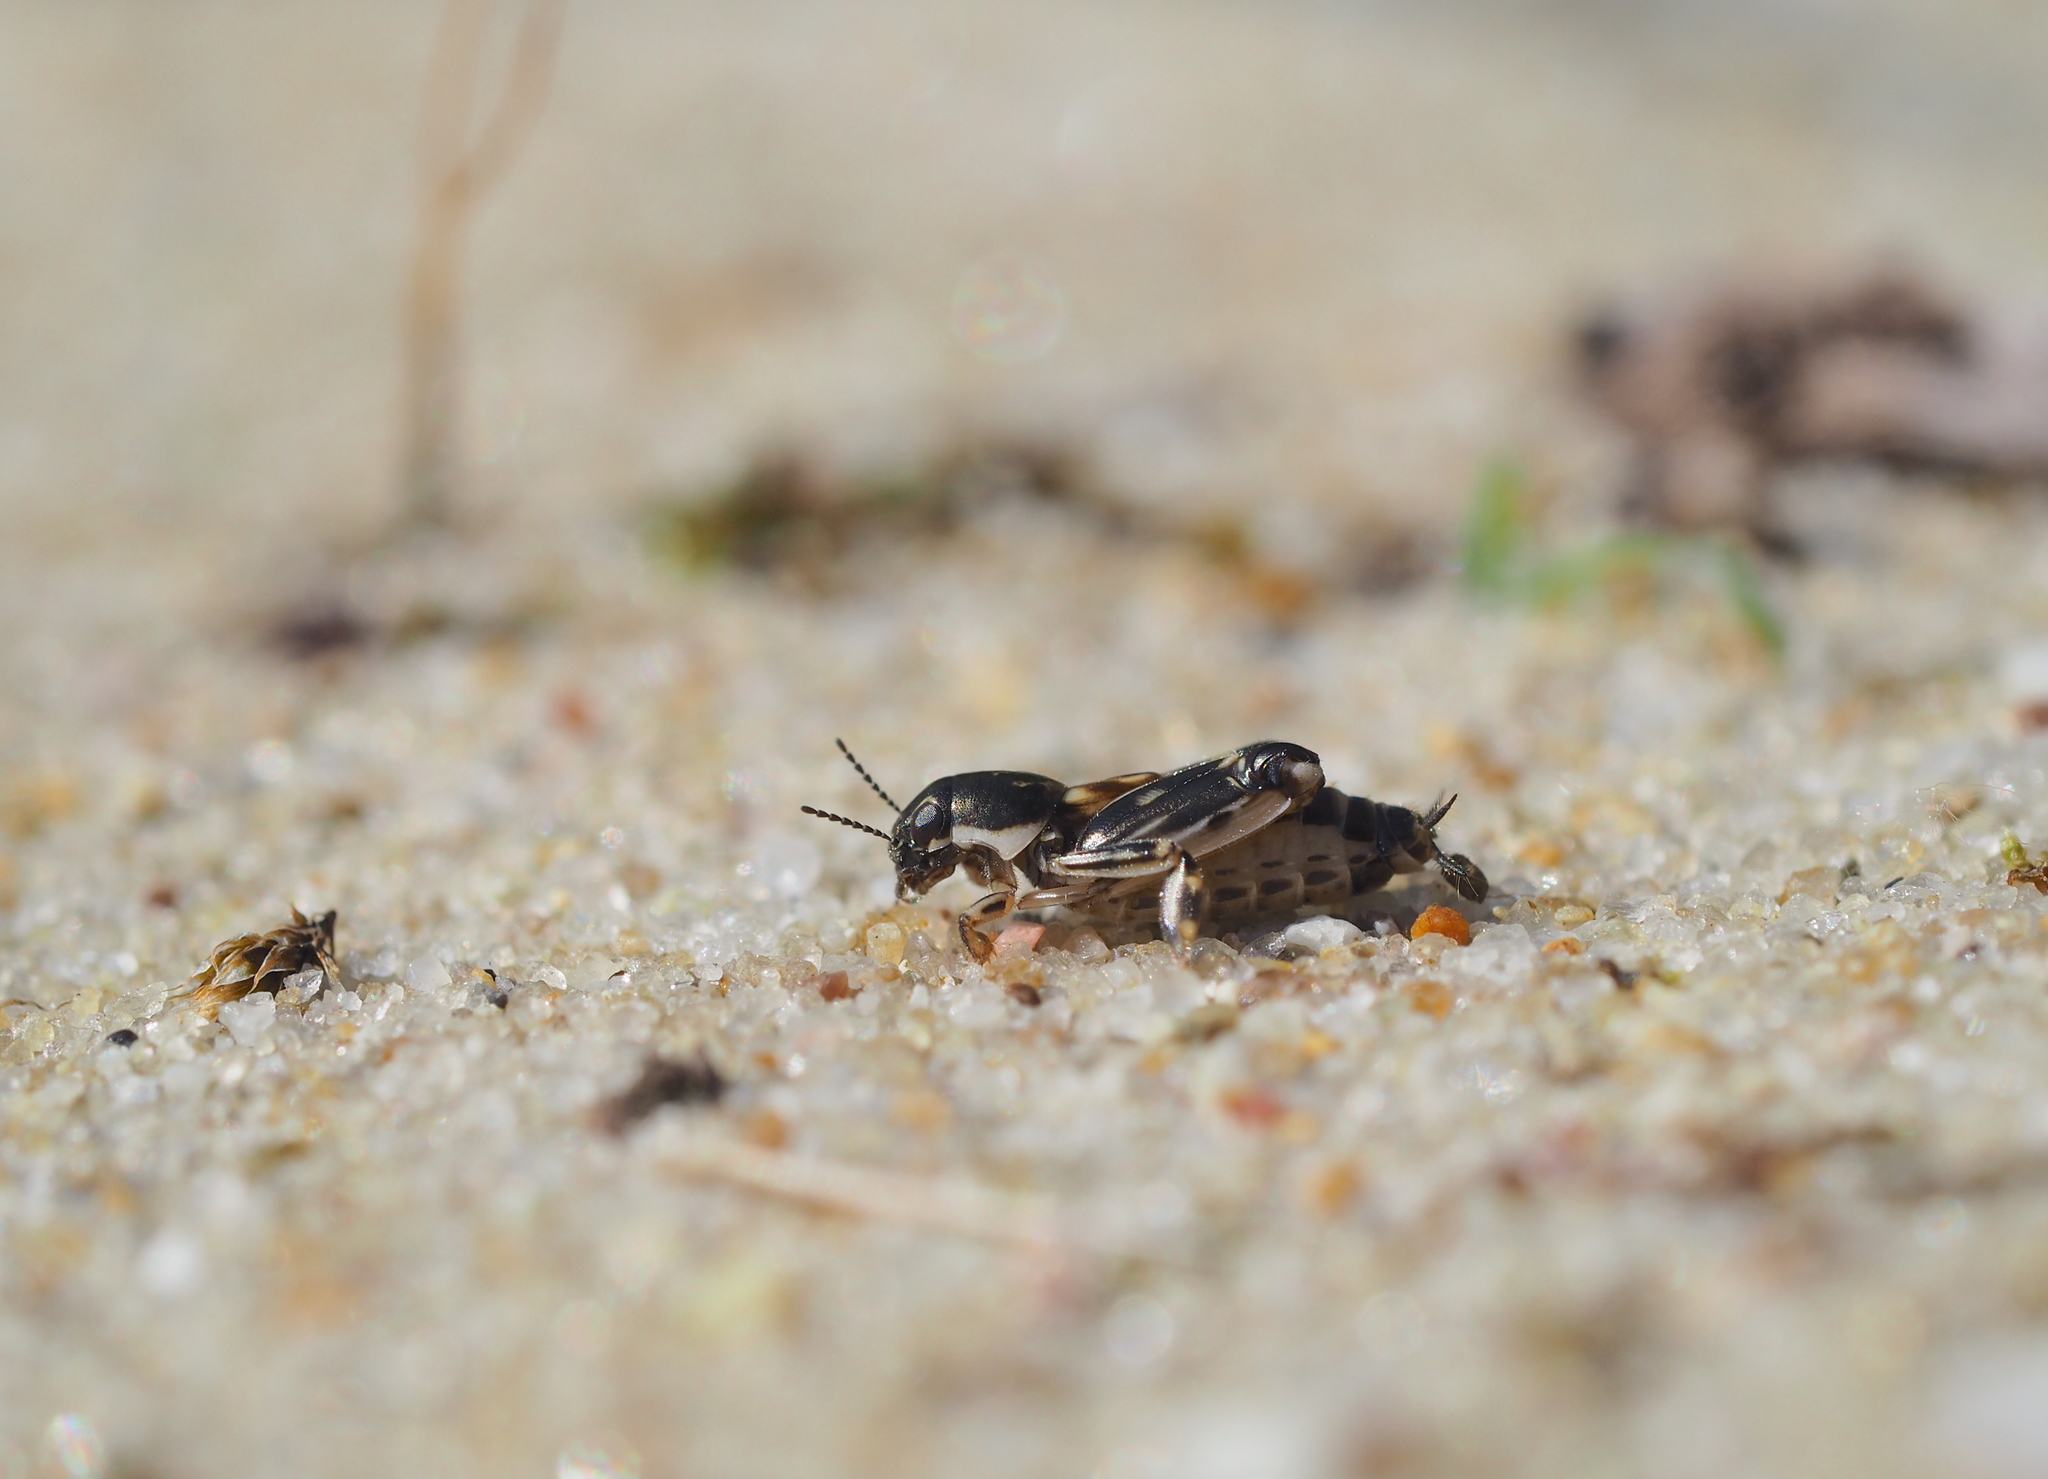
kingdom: Animalia
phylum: Arthropoda
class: Insecta
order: Orthoptera
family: Tridactylidae
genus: Xya
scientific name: Xya variegata
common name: Le tridactyle panaché
